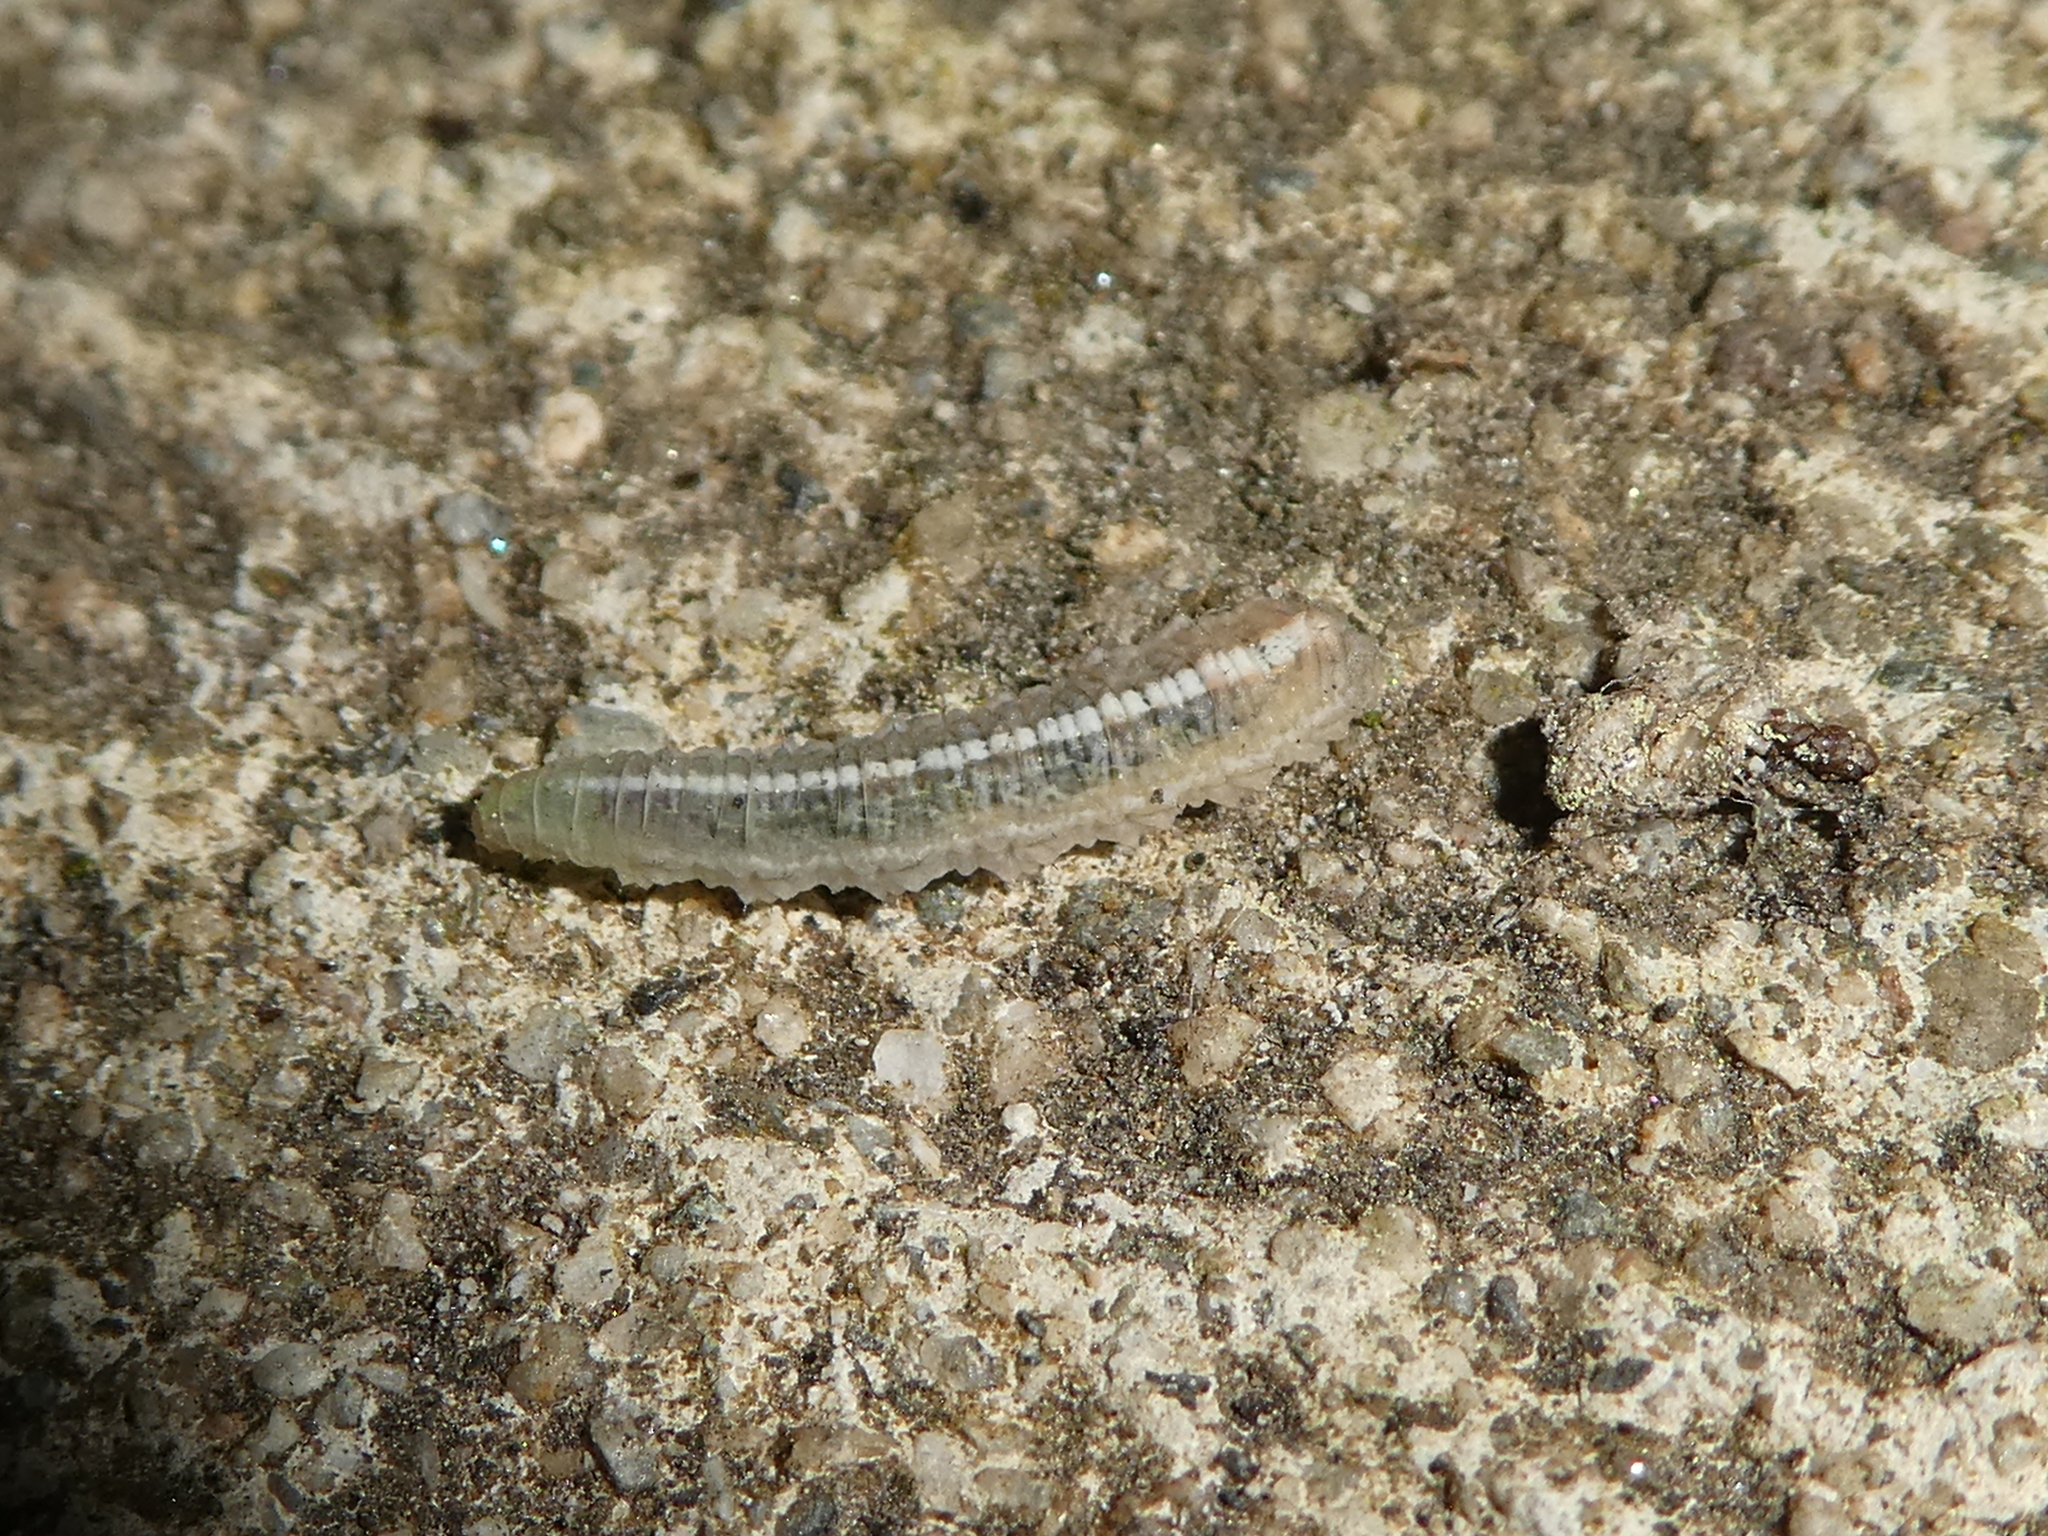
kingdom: Animalia
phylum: Arthropoda
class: Insecta
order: Diptera
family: Syrphidae
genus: Scaeva
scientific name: Scaeva affinis
